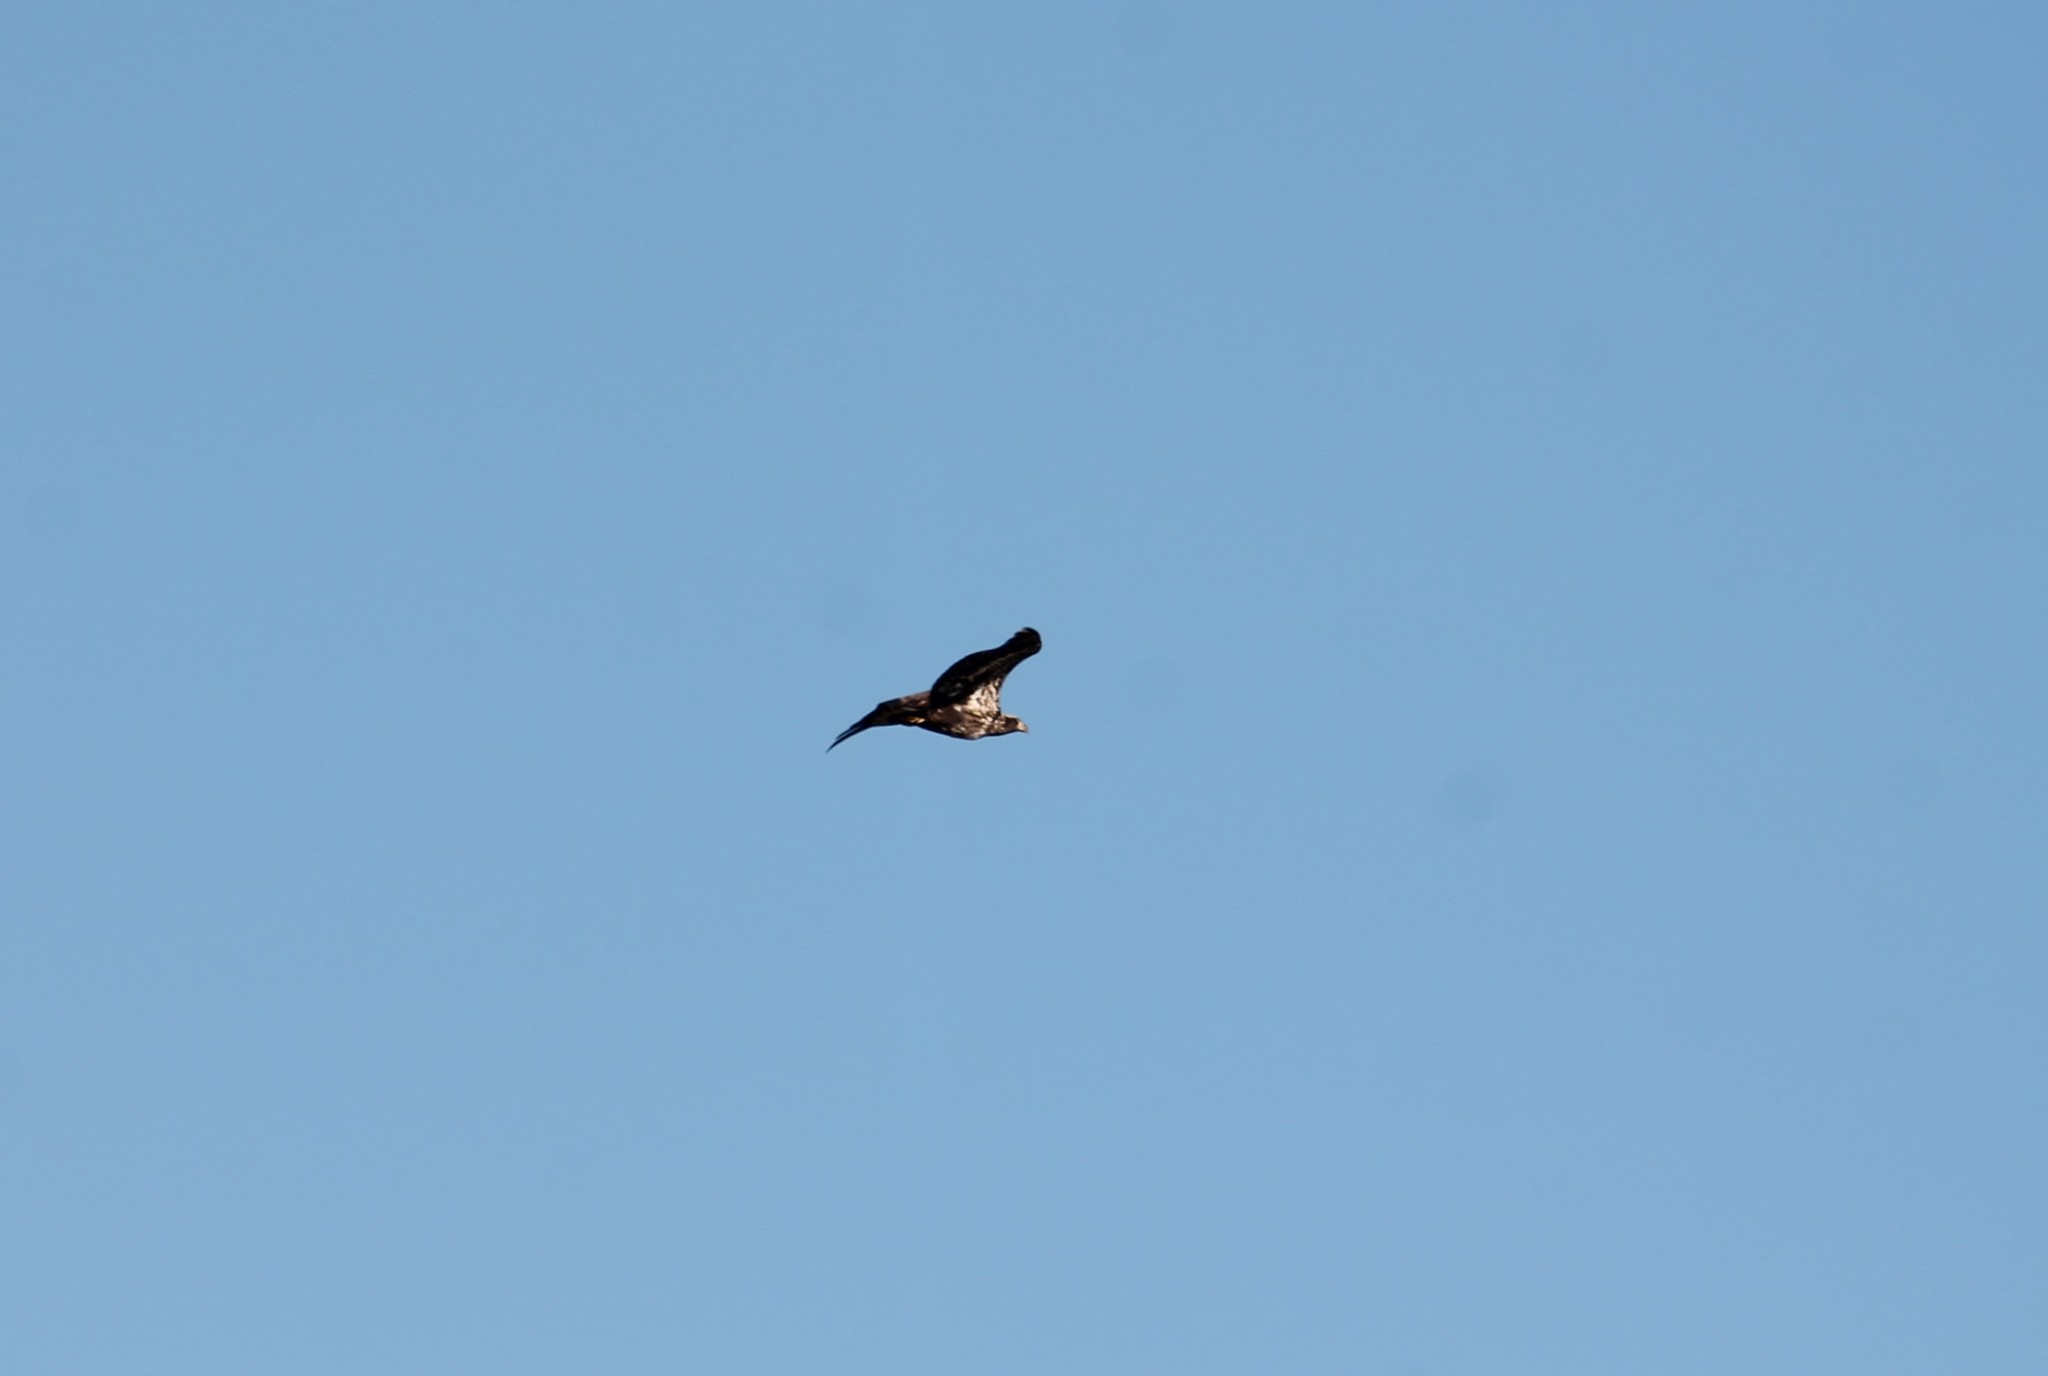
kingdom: Animalia
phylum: Chordata
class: Aves
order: Accipitriformes
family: Accipitridae
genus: Haliaeetus
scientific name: Haliaeetus leucocephalus
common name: Bald eagle
